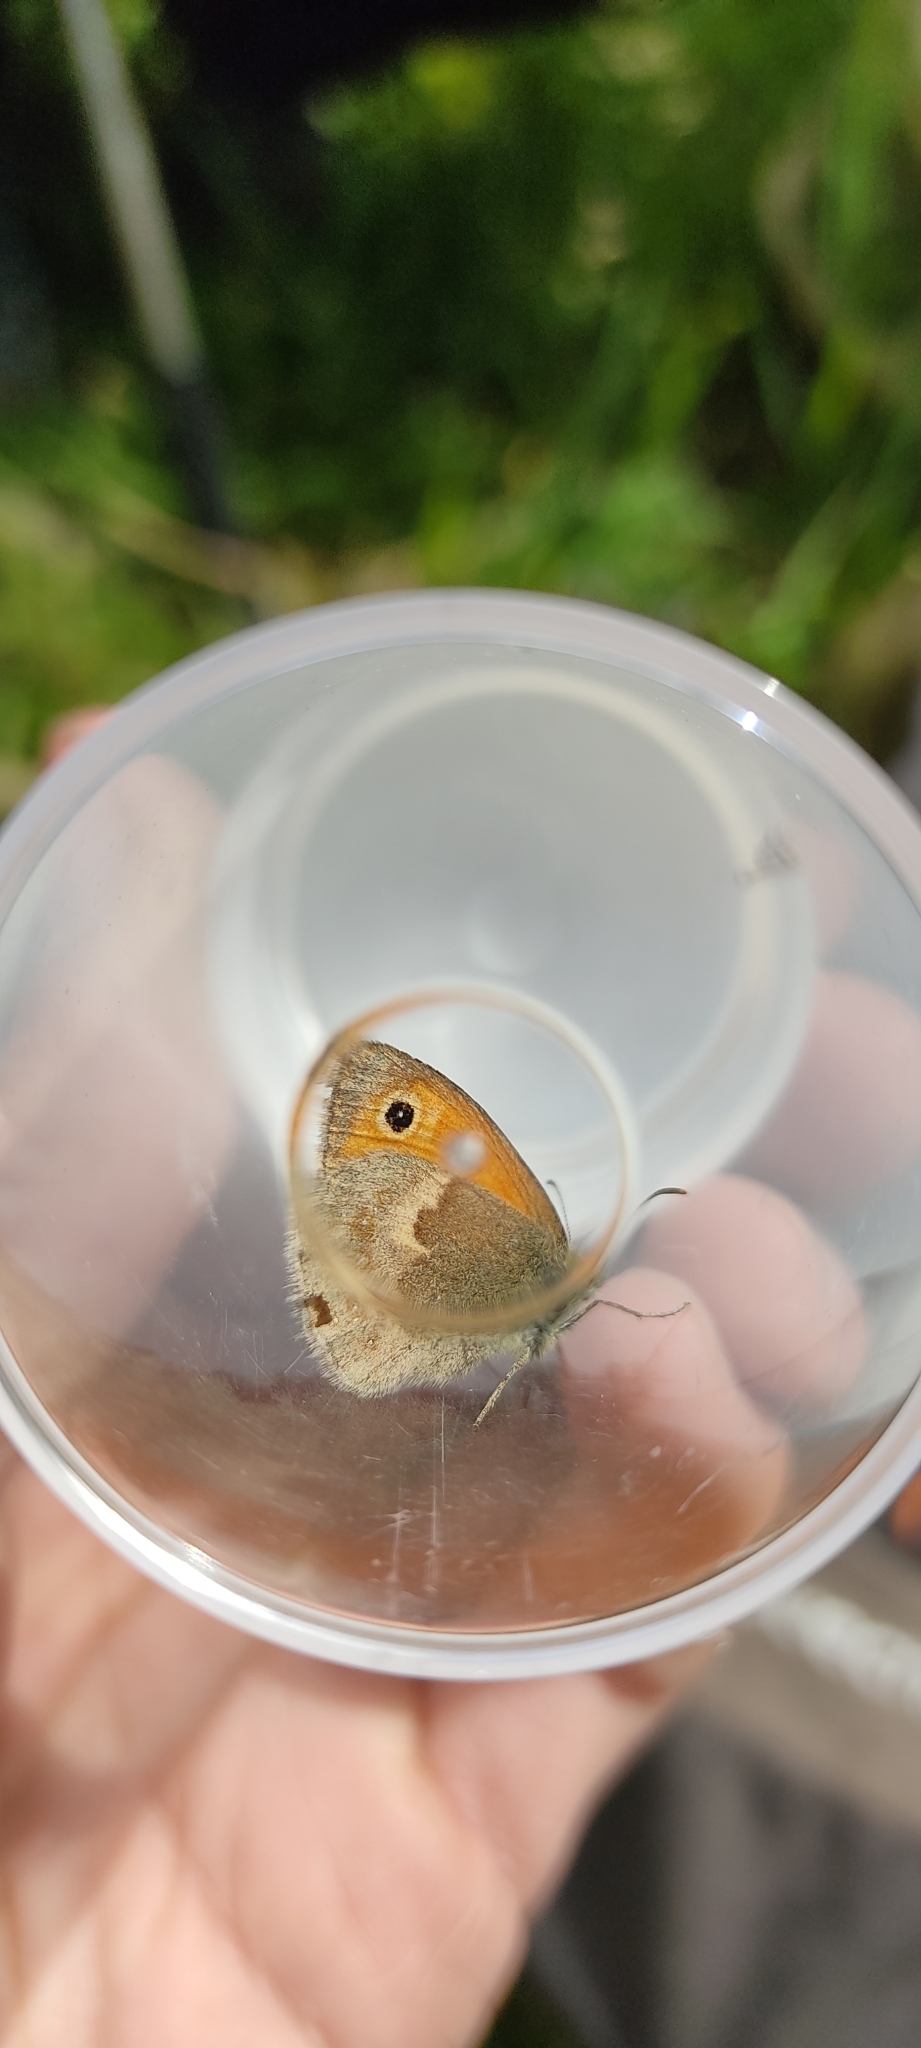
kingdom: Animalia
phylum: Arthropoda
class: Insecta
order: Lepidoptera
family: Nymphalidae
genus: Coenonympha
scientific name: Coenonympha pamphilus
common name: Small heath
